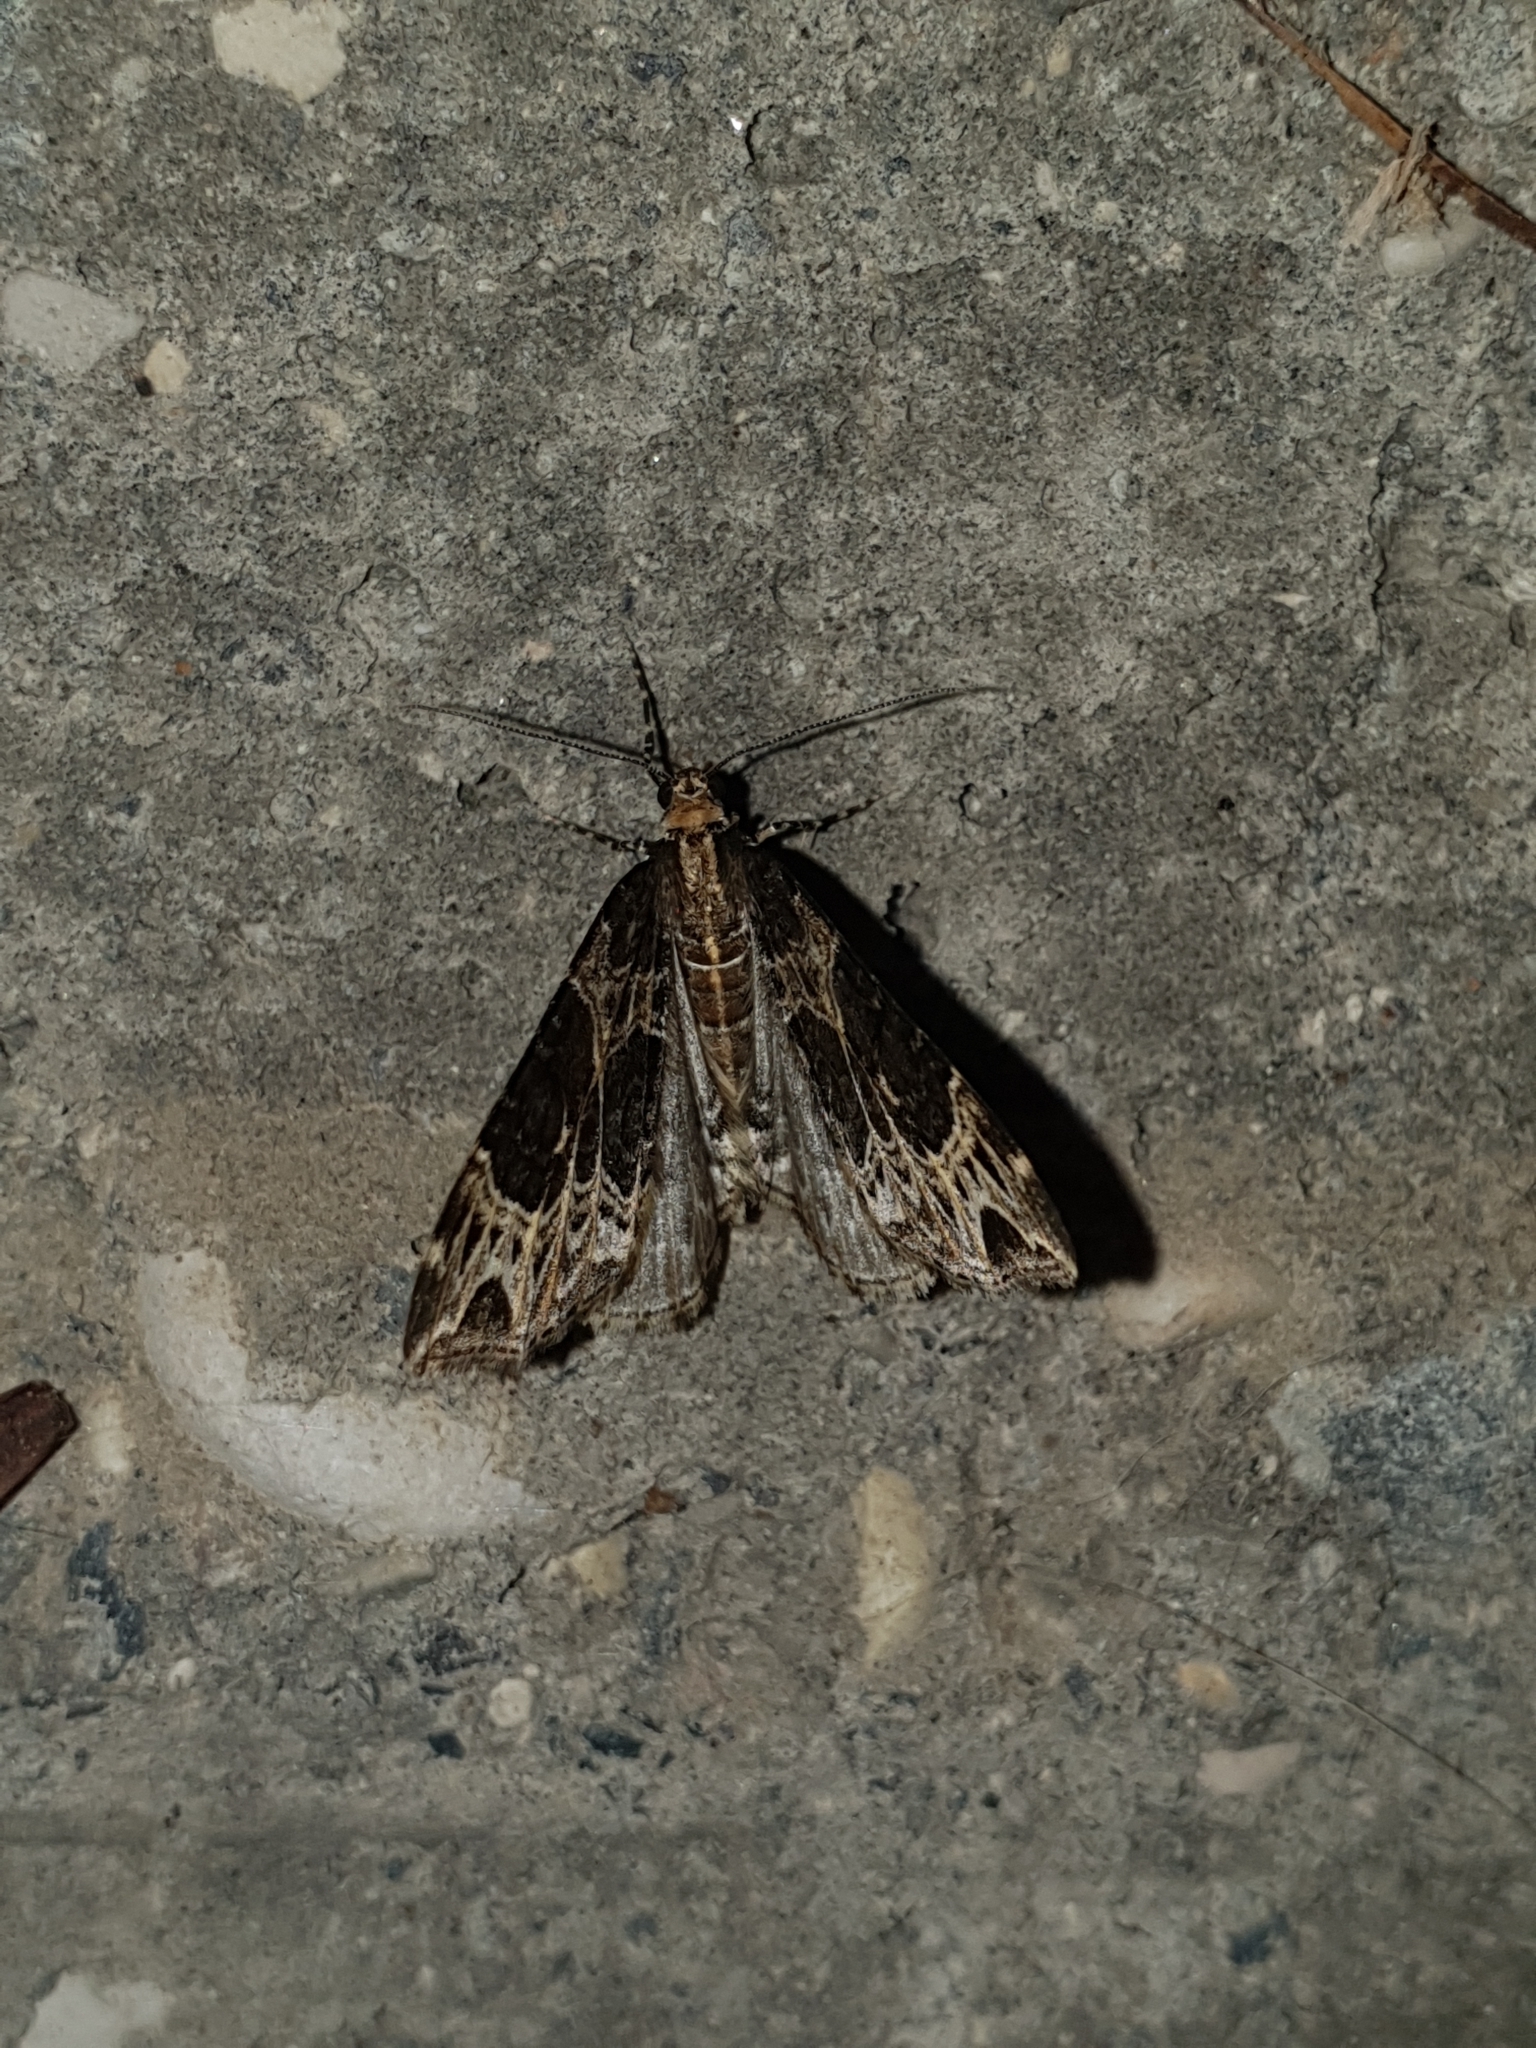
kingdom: Animalia
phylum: Arthropoda
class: Insecta
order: Lepidoptera
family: Geometridae
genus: Ecliptopera
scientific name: Ecliptopera silaceata
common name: Small phoenix
